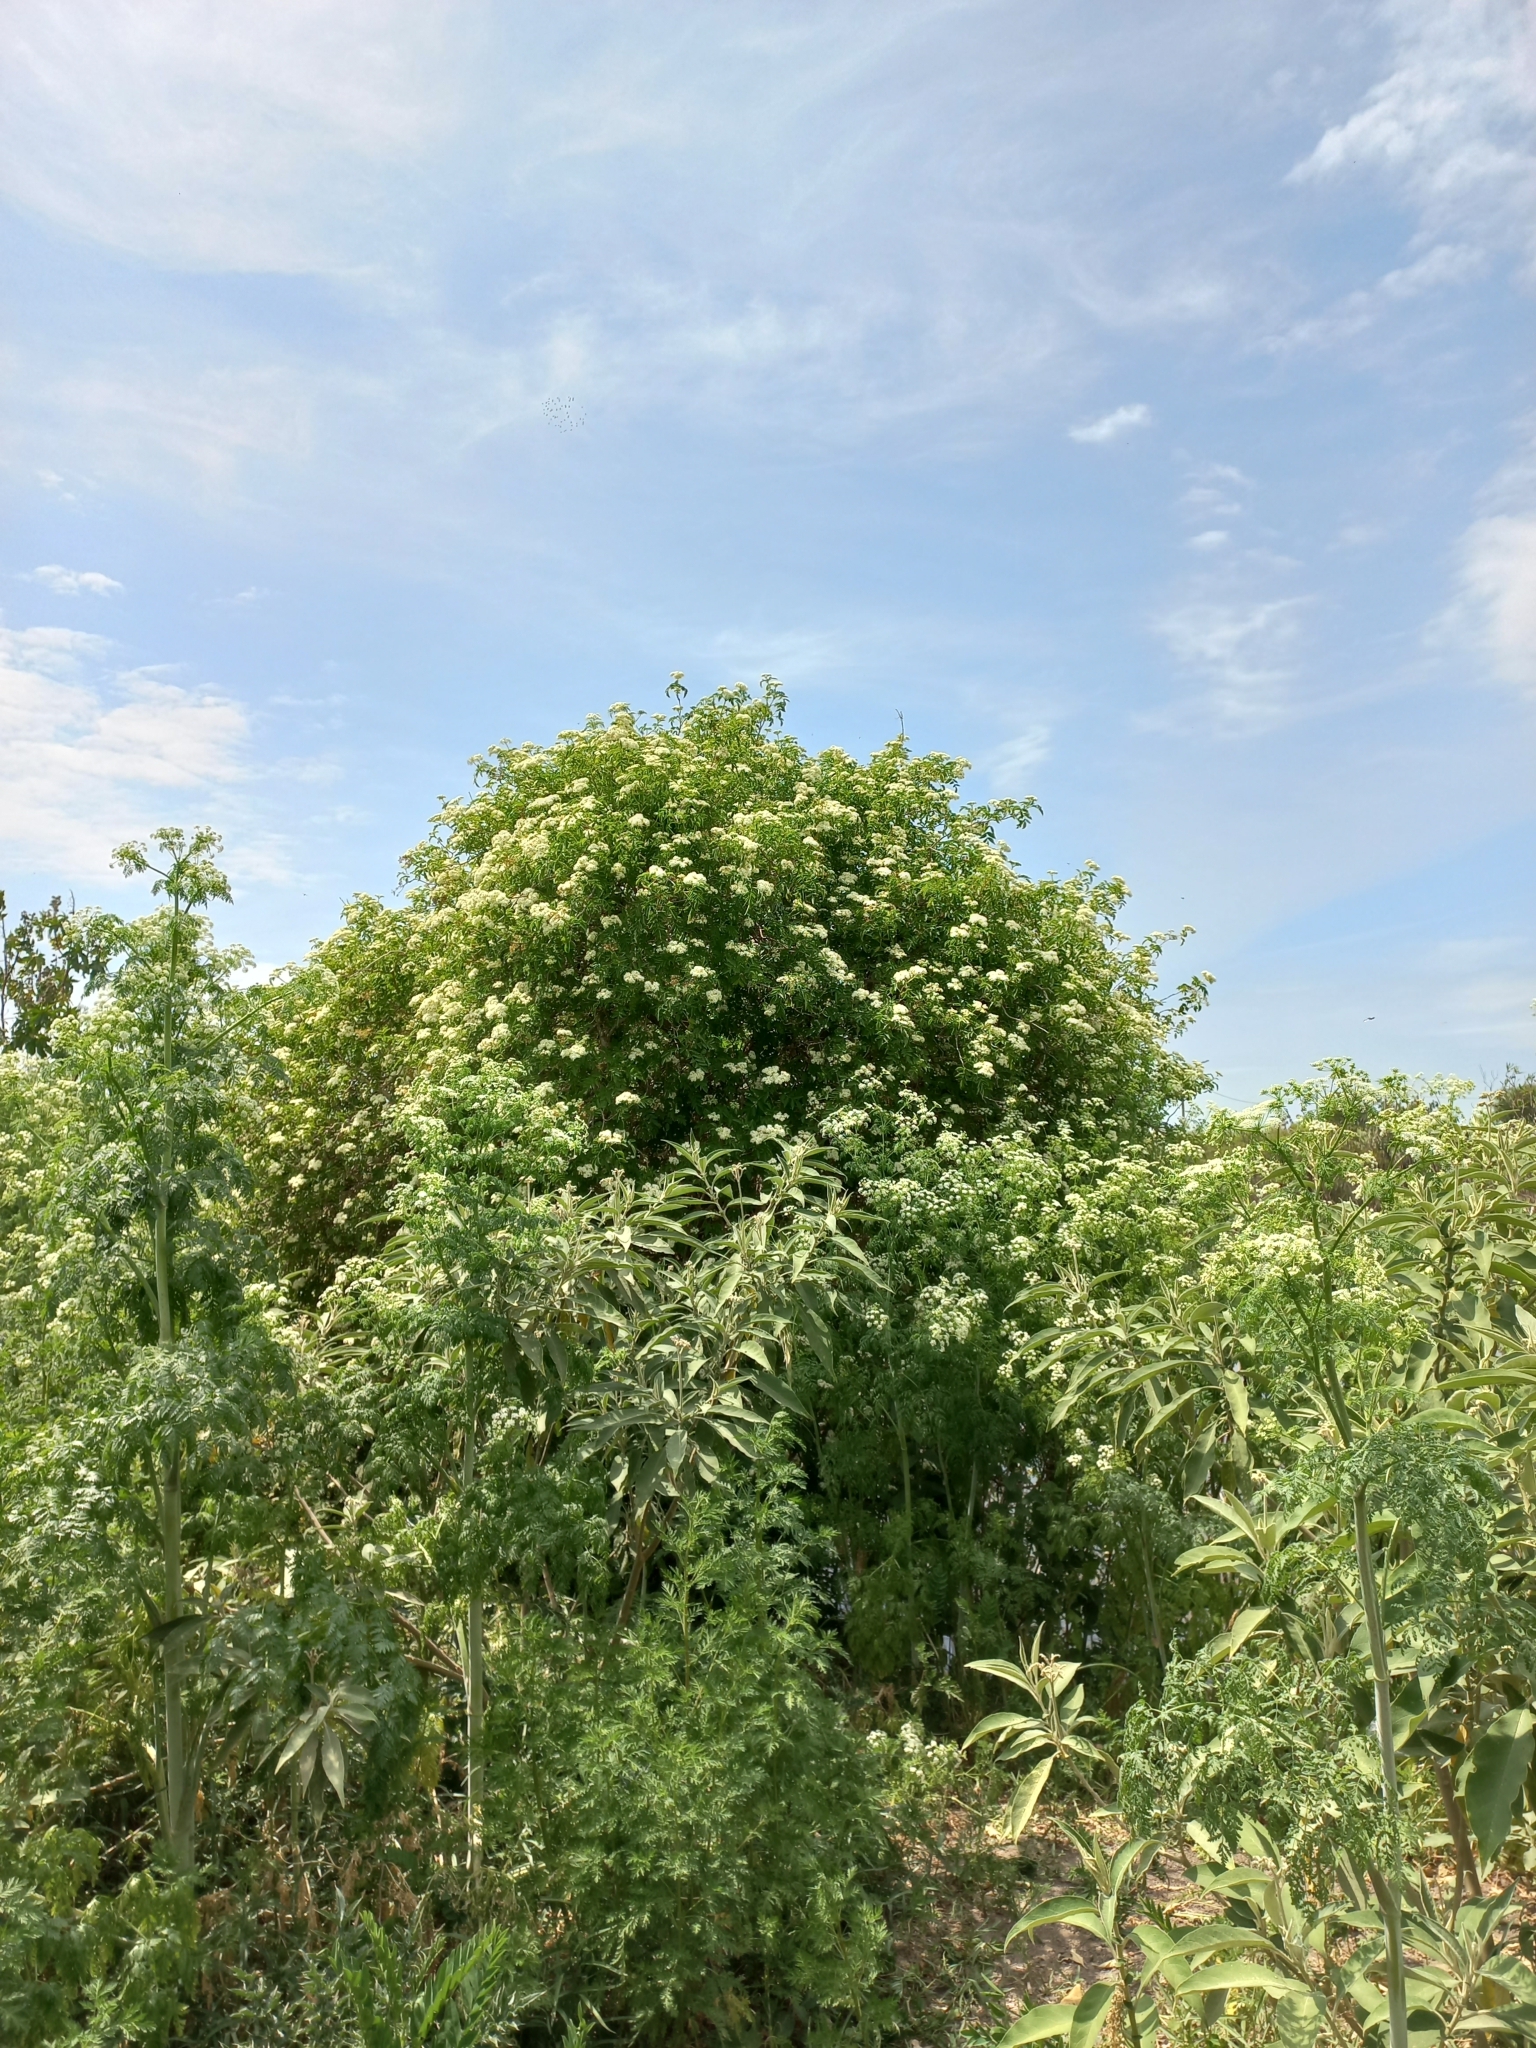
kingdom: Plantae
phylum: Tracheophyta
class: Magnoliopsida
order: Dipsacales
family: Viburnaceae
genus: Sambucus
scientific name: Sambucus australis
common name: Southern elder
